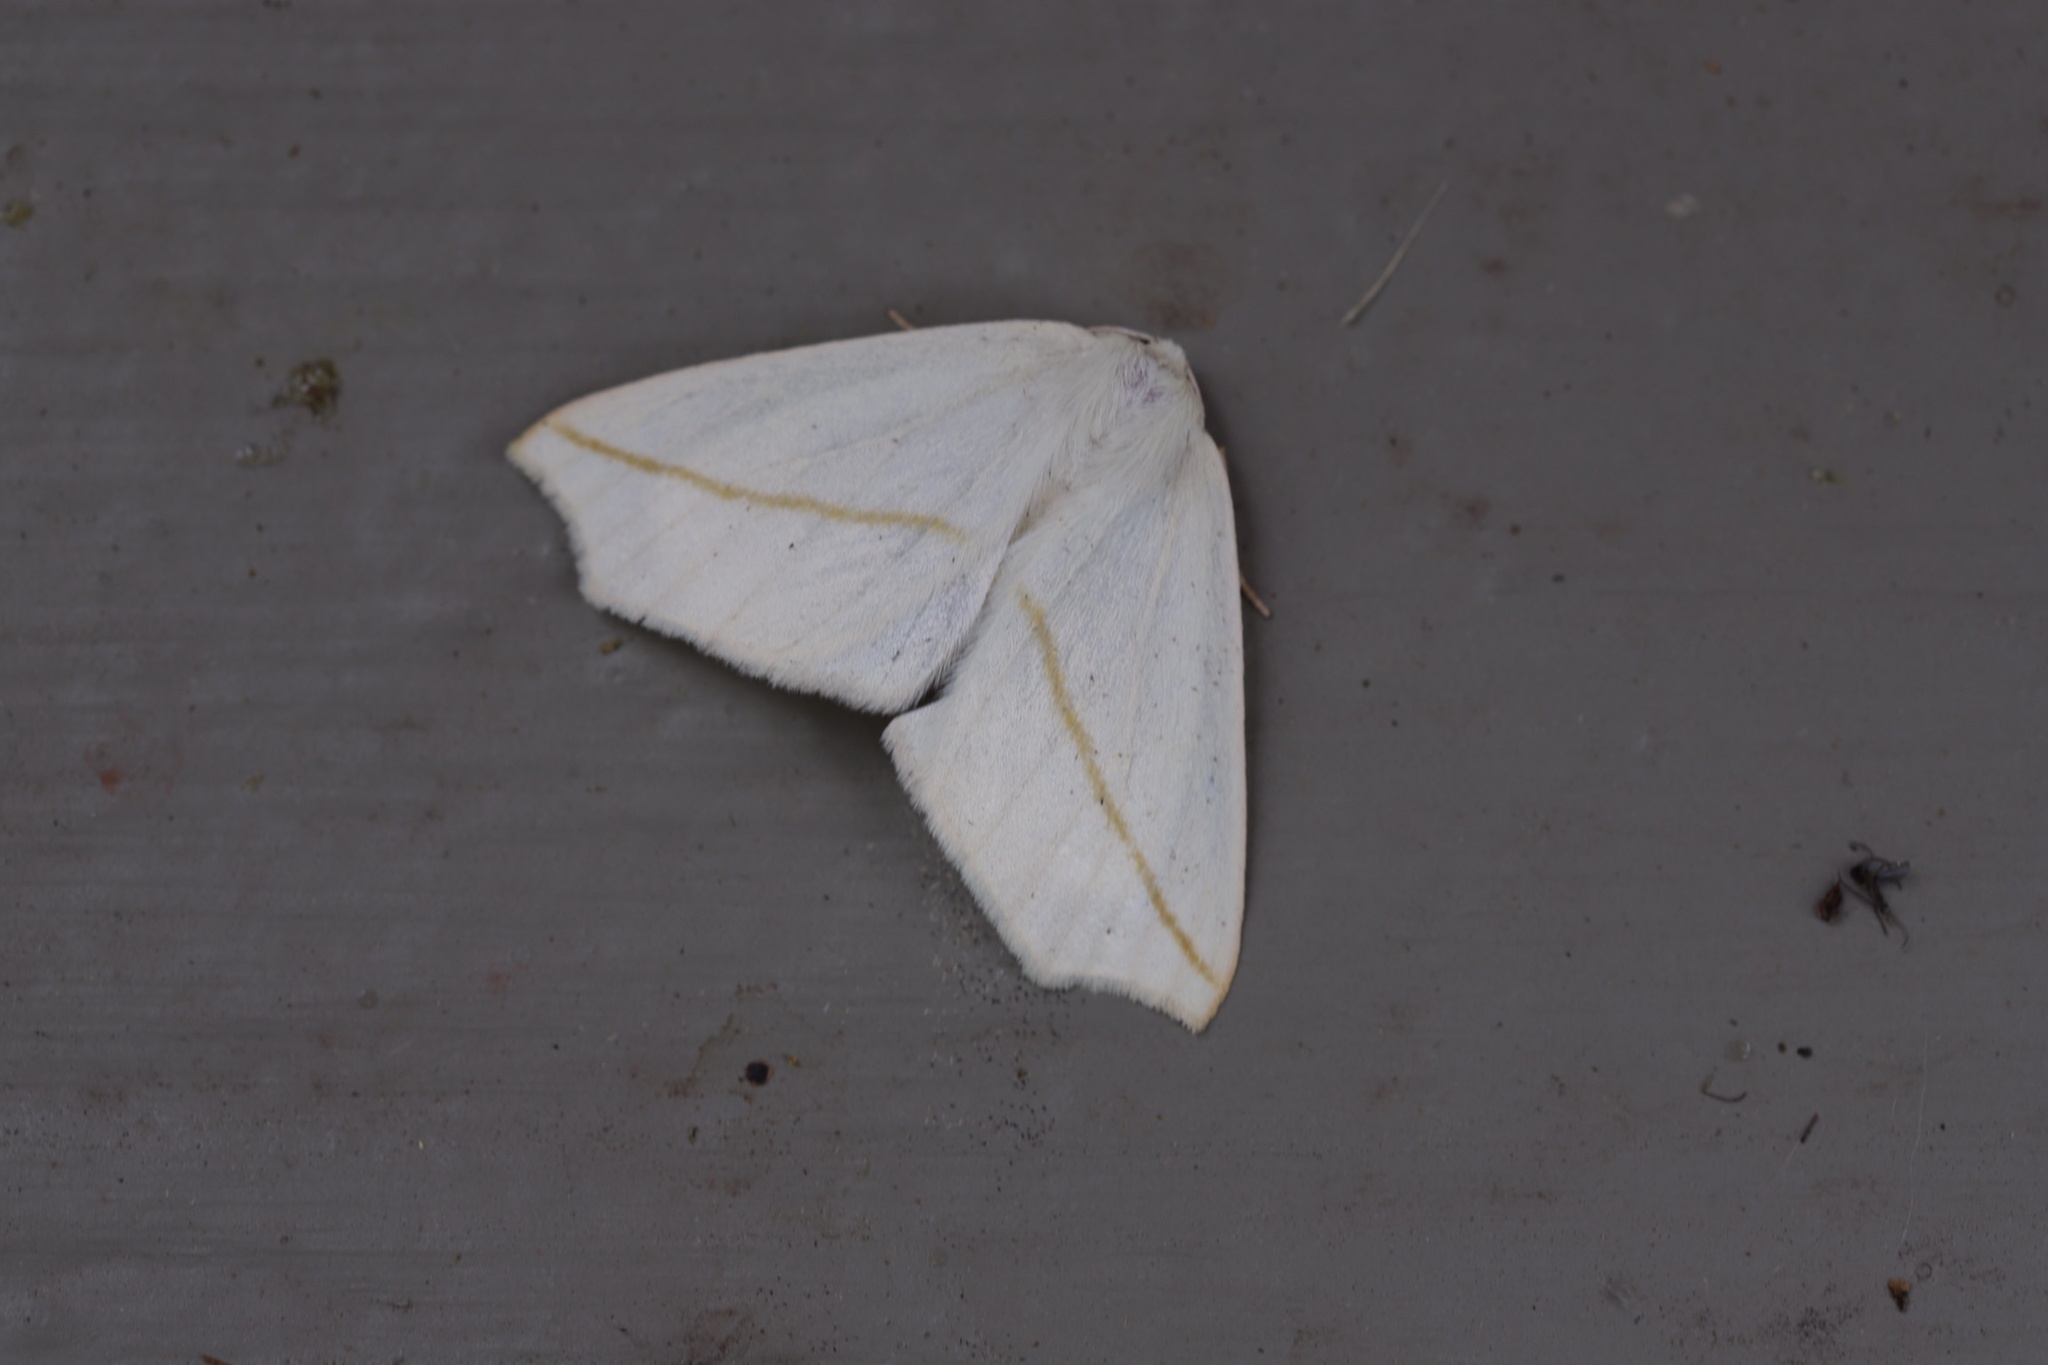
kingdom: Animalia
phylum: Arthropoda
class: Insecta
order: Lepidoptera
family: Geometridae
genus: Tetracis
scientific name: Tetracis cachexiata
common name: White slant-line
